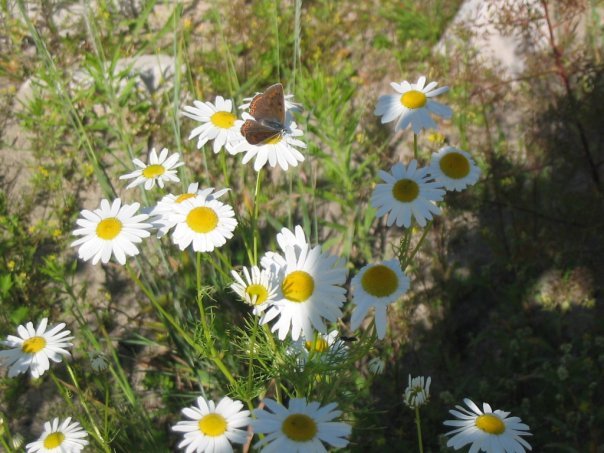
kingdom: Plantae
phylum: Tracheophyta
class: Magnoliopsida
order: Asterales
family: Asteraceae
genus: Tripleurospermum
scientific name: Tripleurospermum inodorum
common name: Scentless mayweed
